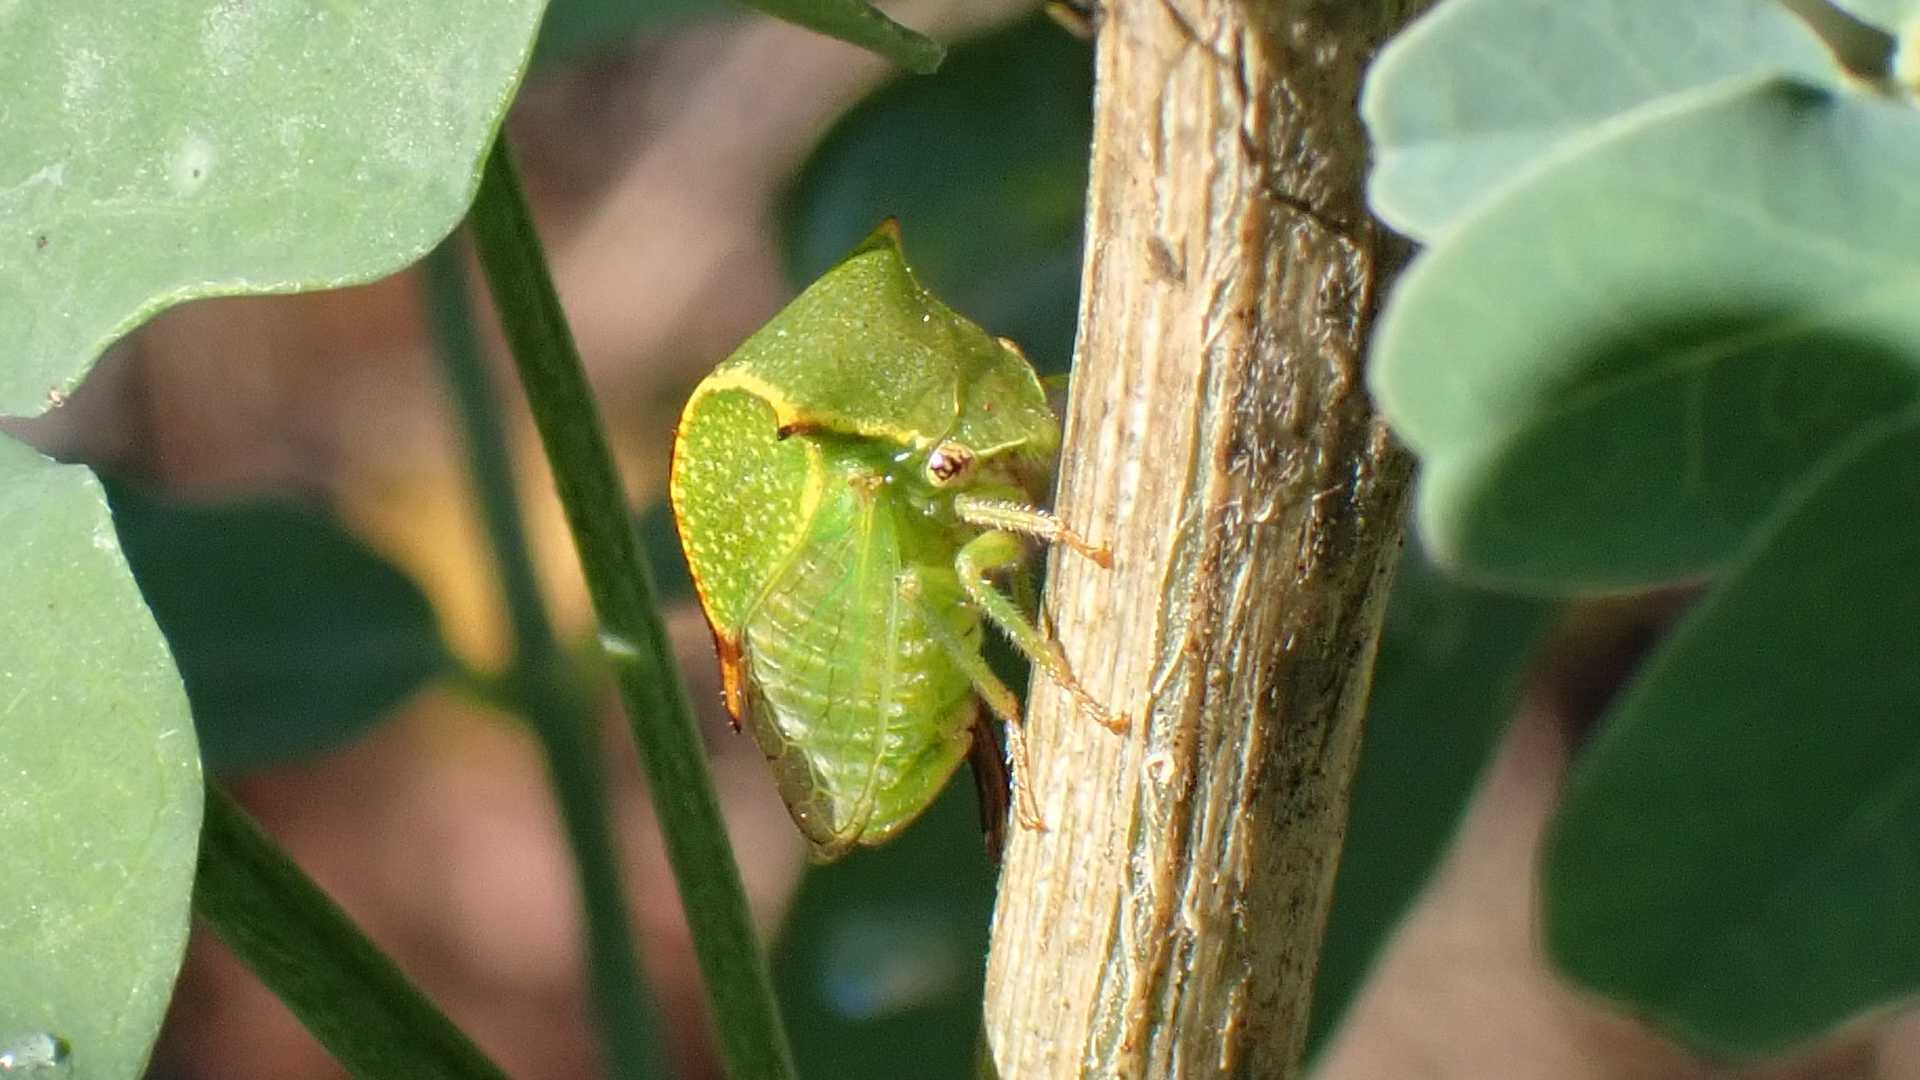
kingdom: Animalia
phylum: Arthropoda
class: Insecta
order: Hemiptera
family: Membracidae
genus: Stictocephala
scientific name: Stictocephala bisonia
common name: American buffalo treehopper
